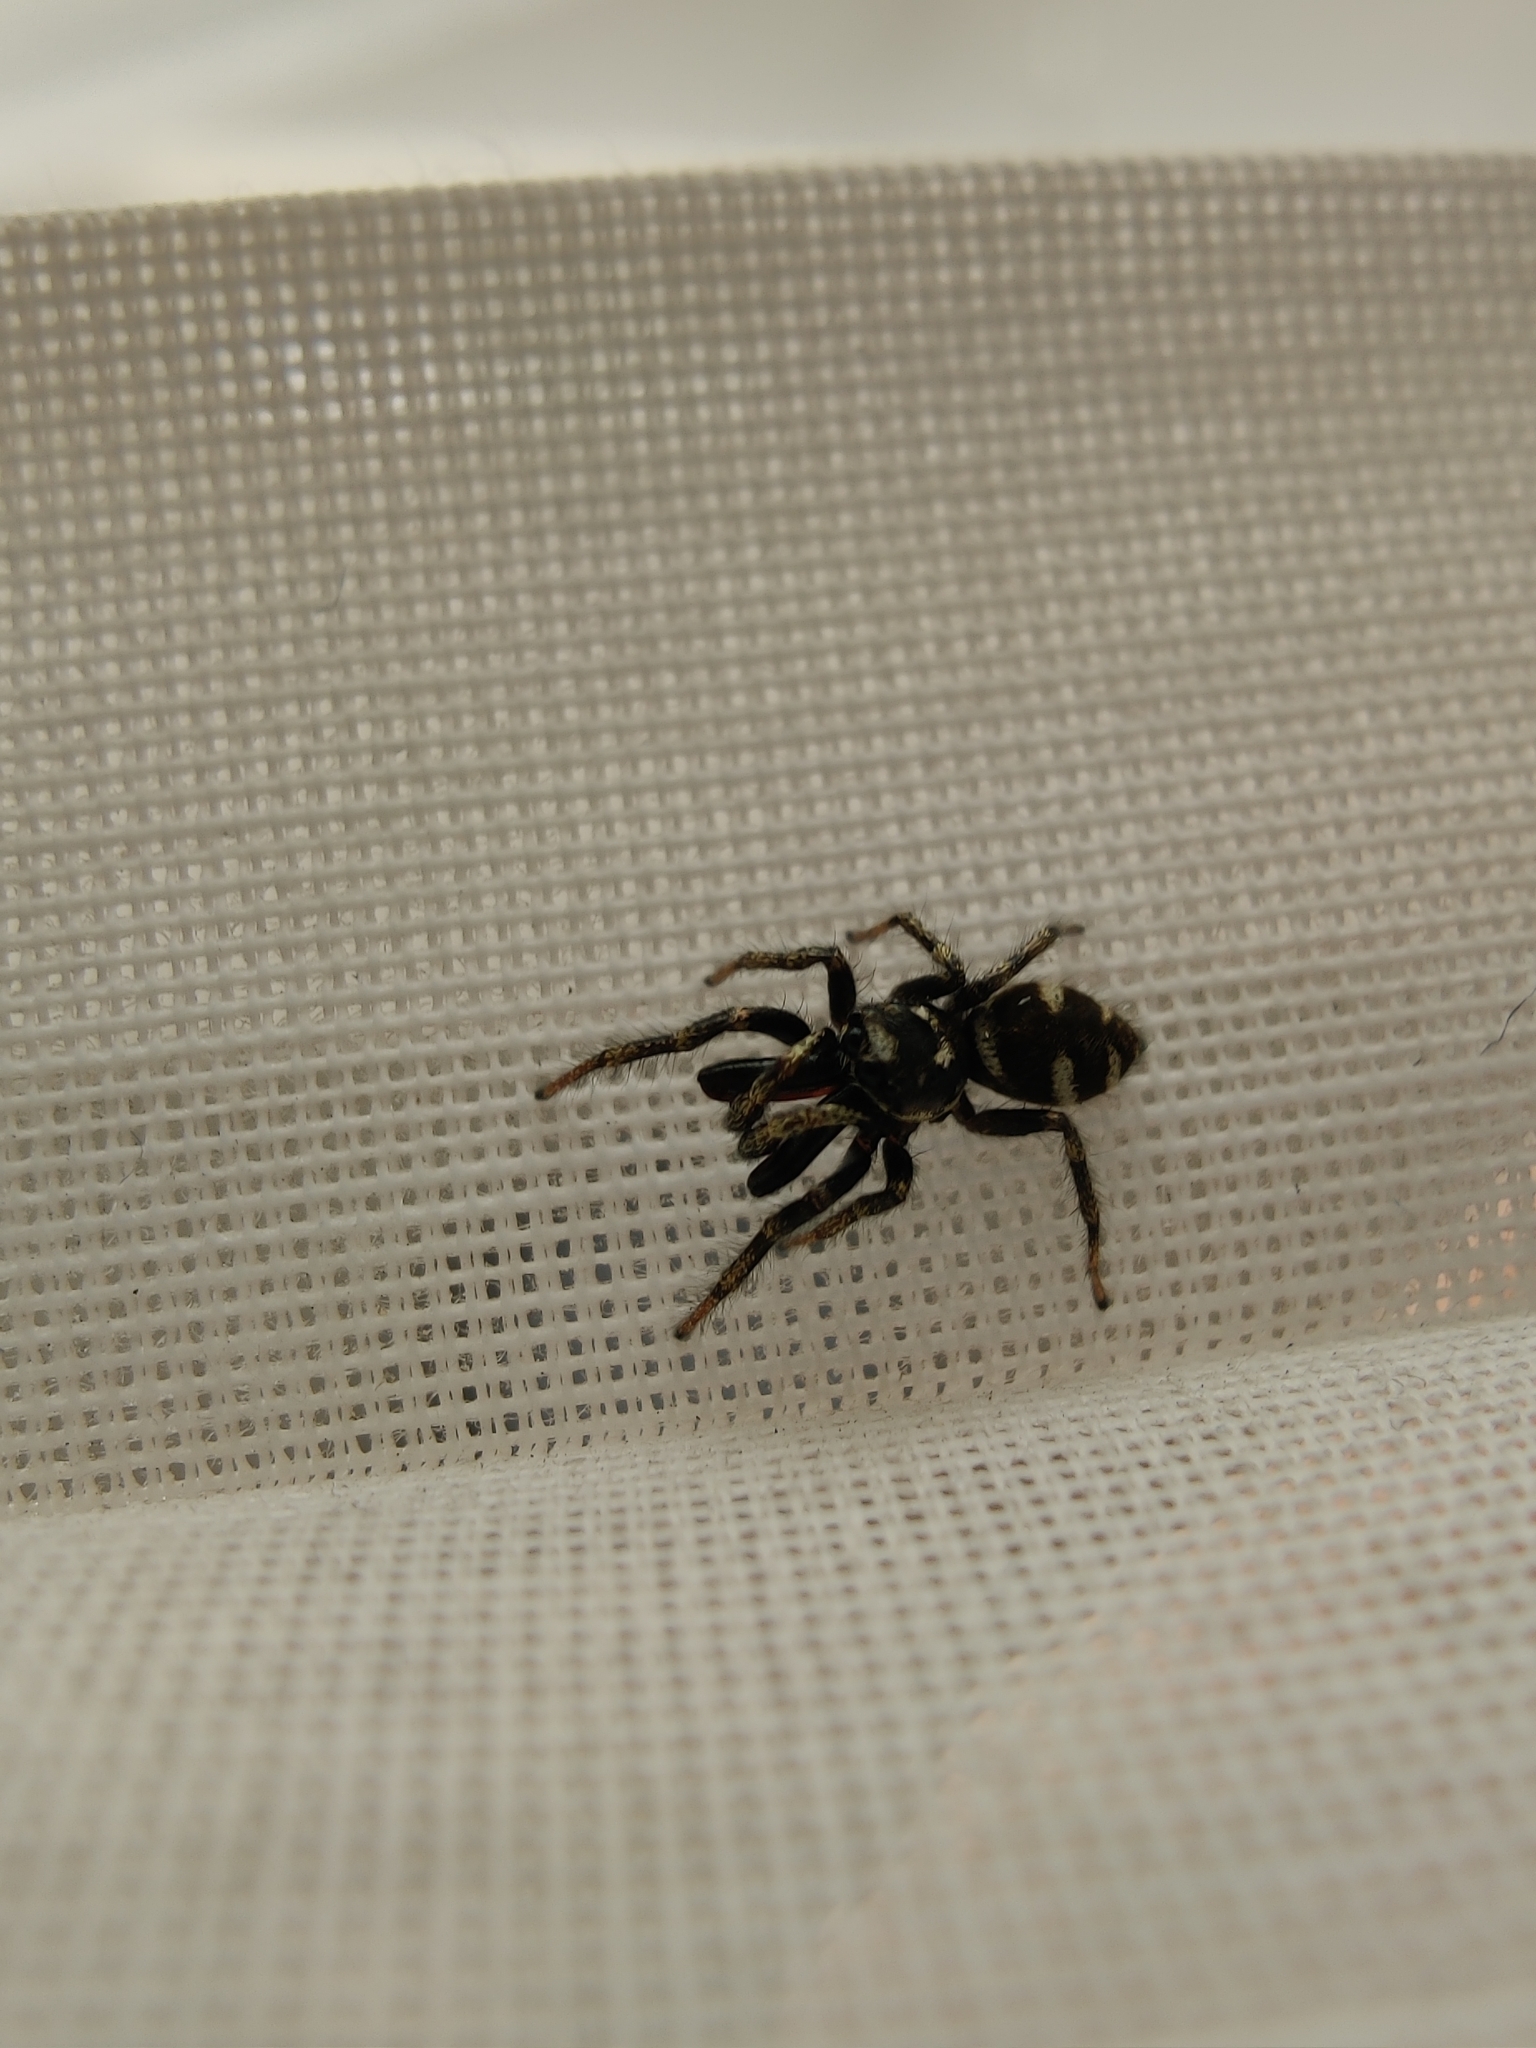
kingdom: Animalia
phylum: Arthropoda
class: Arachnida
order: Araneae
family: Salticidae
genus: Salticus
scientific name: Salticus scenicus
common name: Zebra jumper
